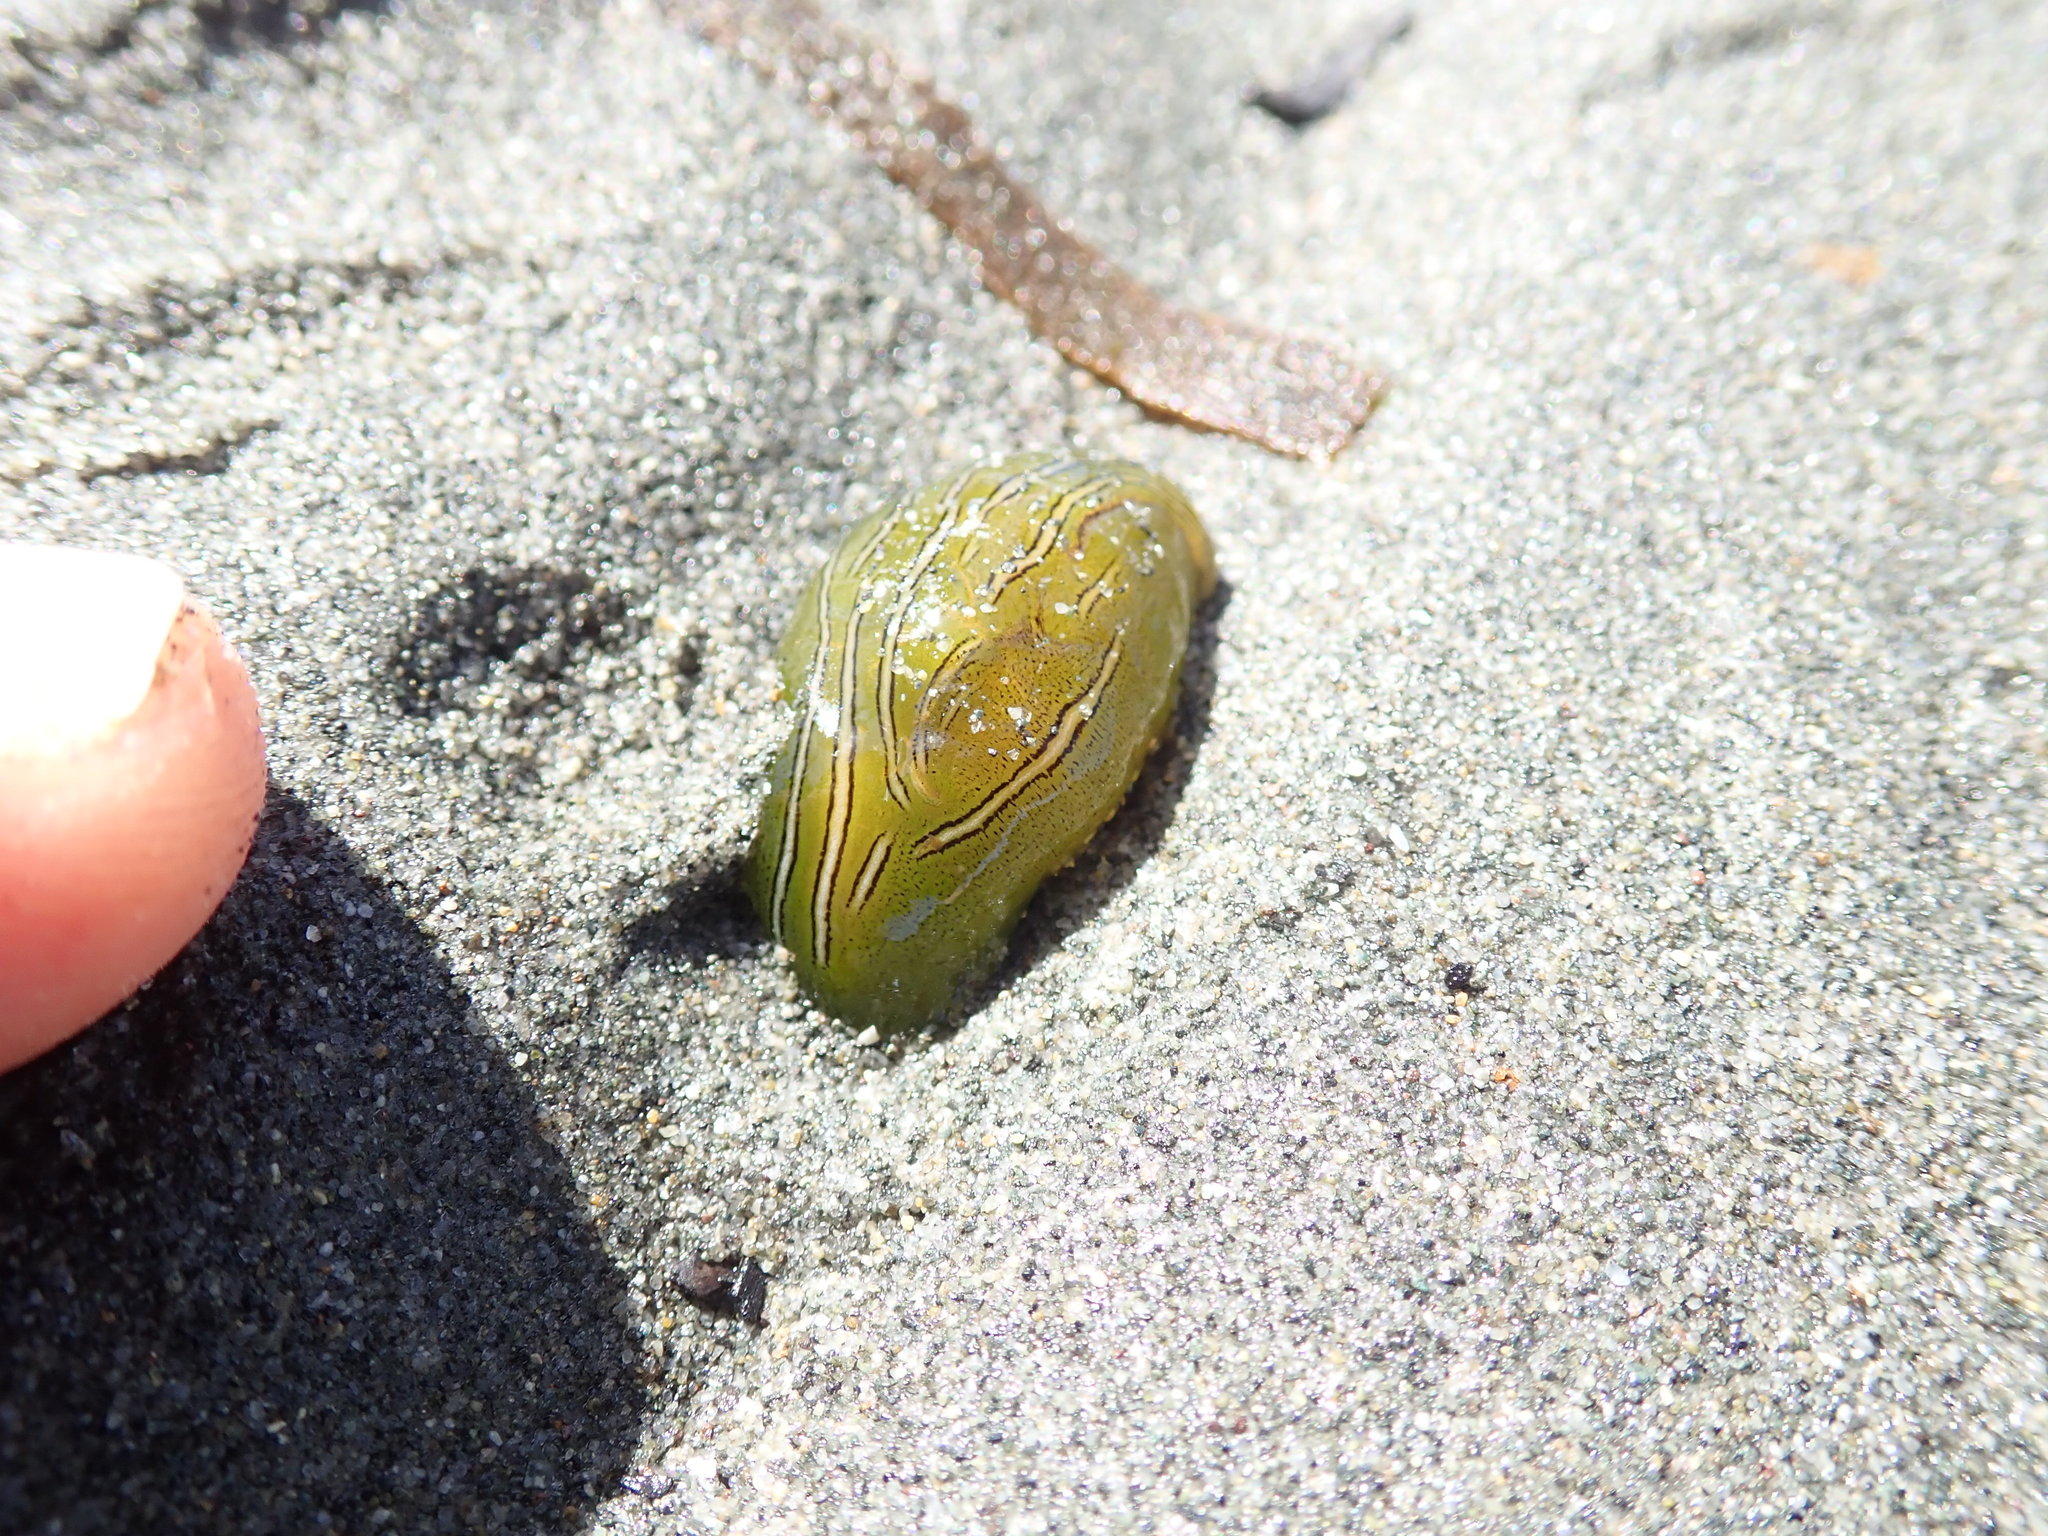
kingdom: Animalia
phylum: Mollusca
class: Gastropoda
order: Aplysiida
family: Aplysiidae
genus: Phyllaplysia
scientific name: Phyllaplysia taylori
